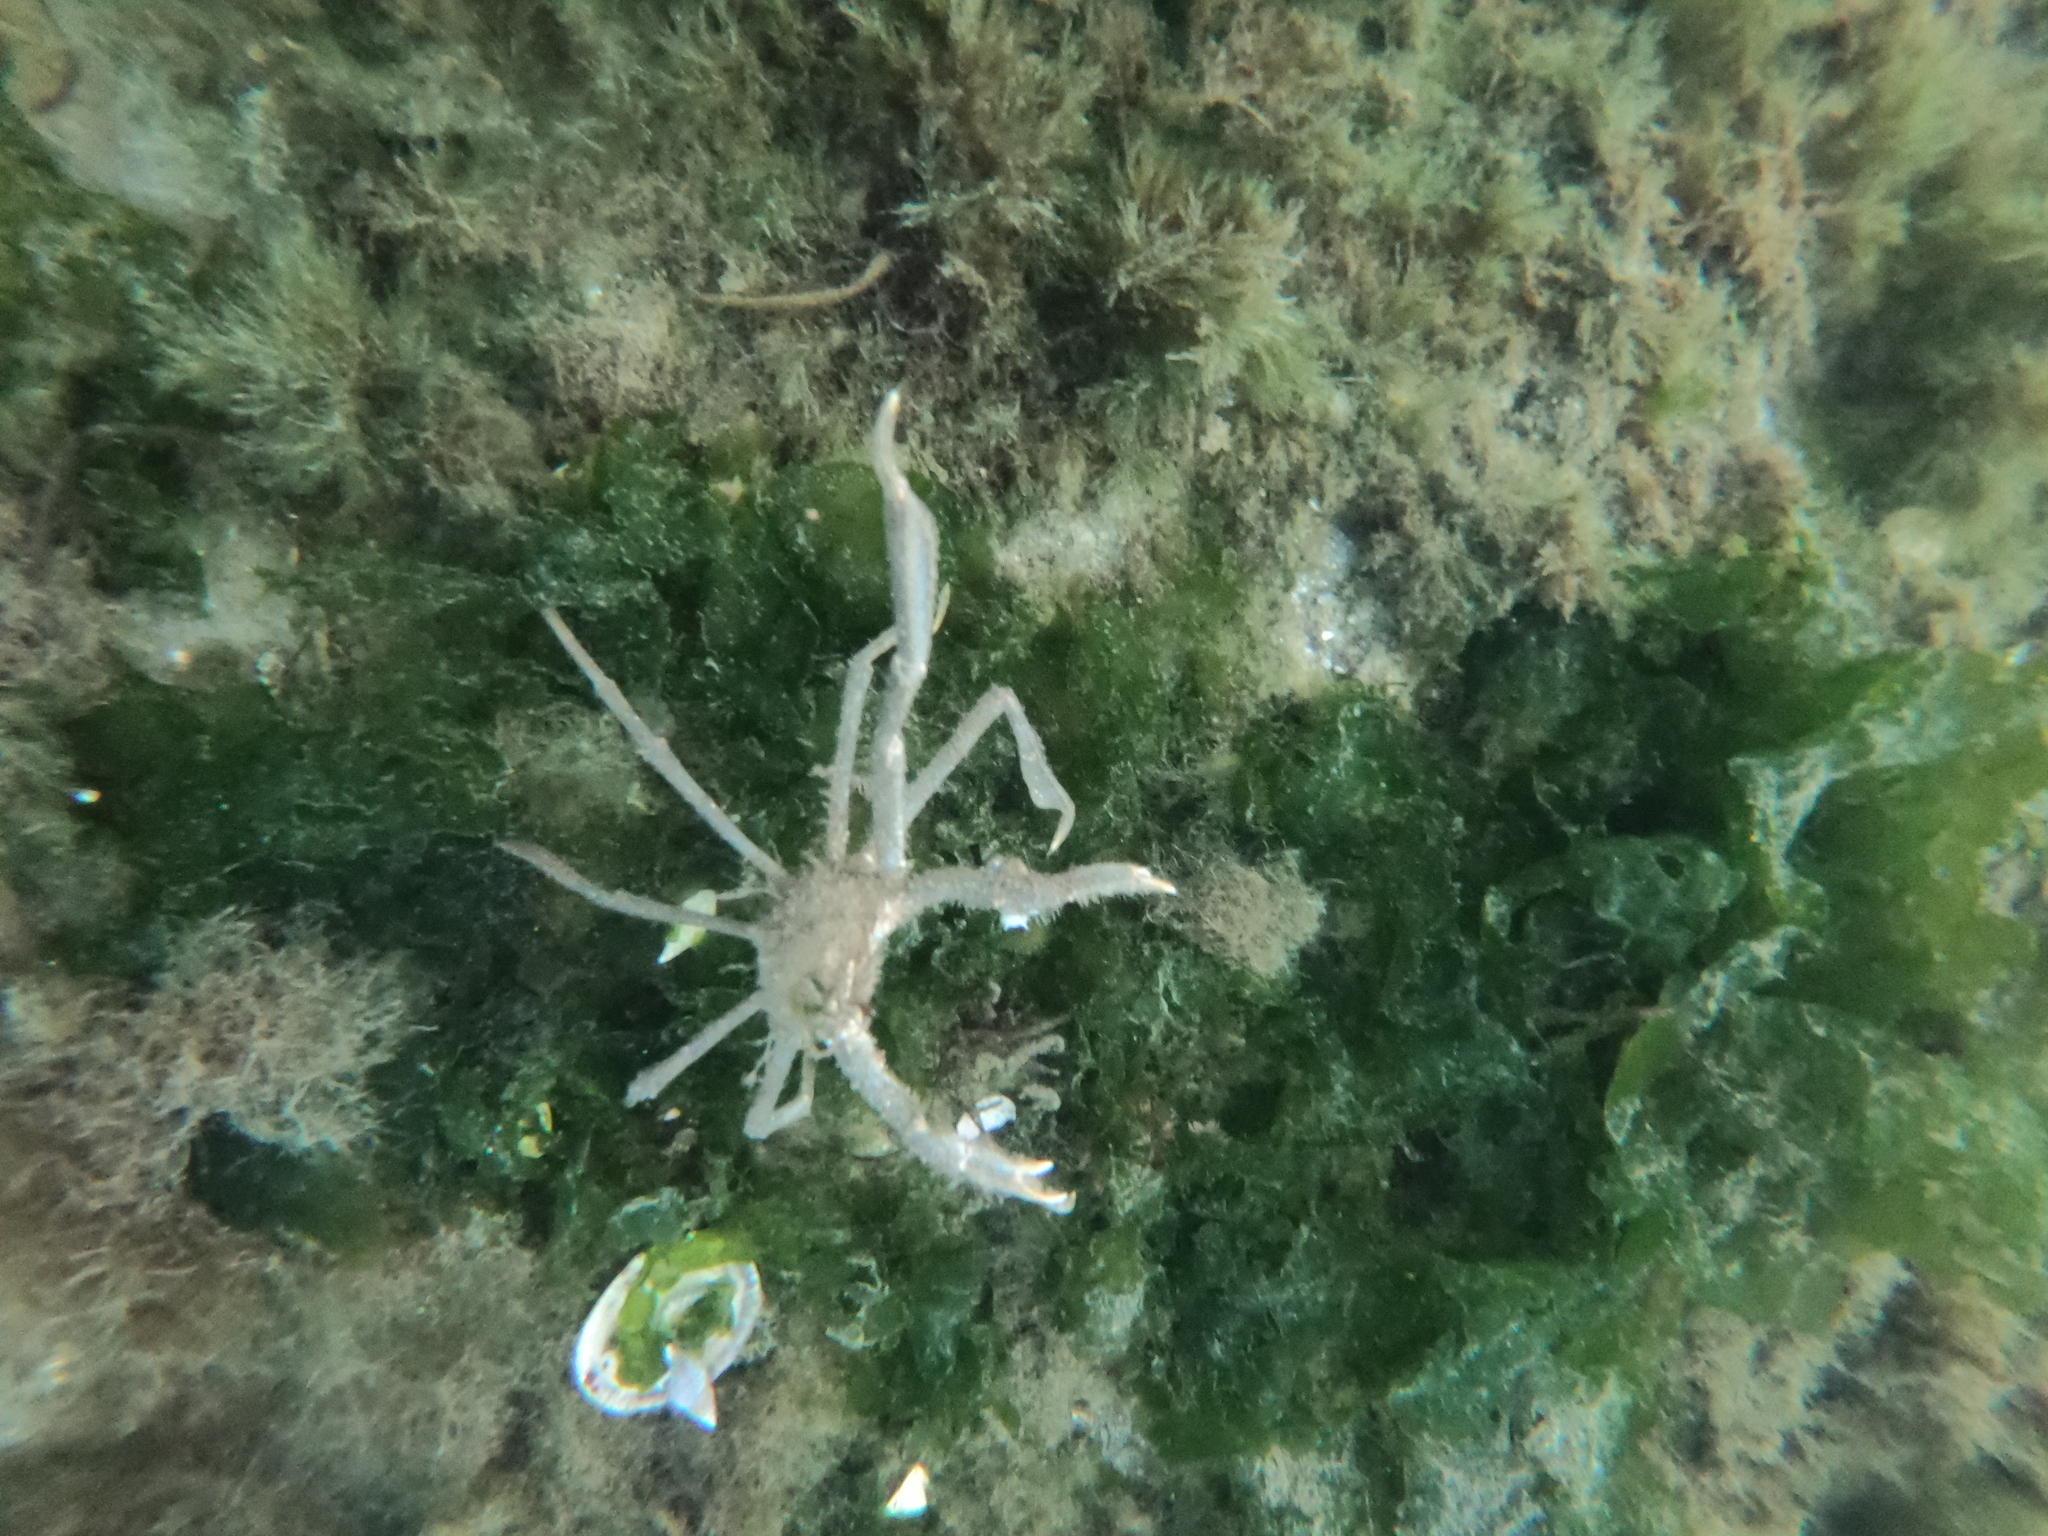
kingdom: Animalia
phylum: Arthropoda
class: Malacostraca
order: Decapoda
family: Inachidae
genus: Eurypodius
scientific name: Eurypodius longirostris
